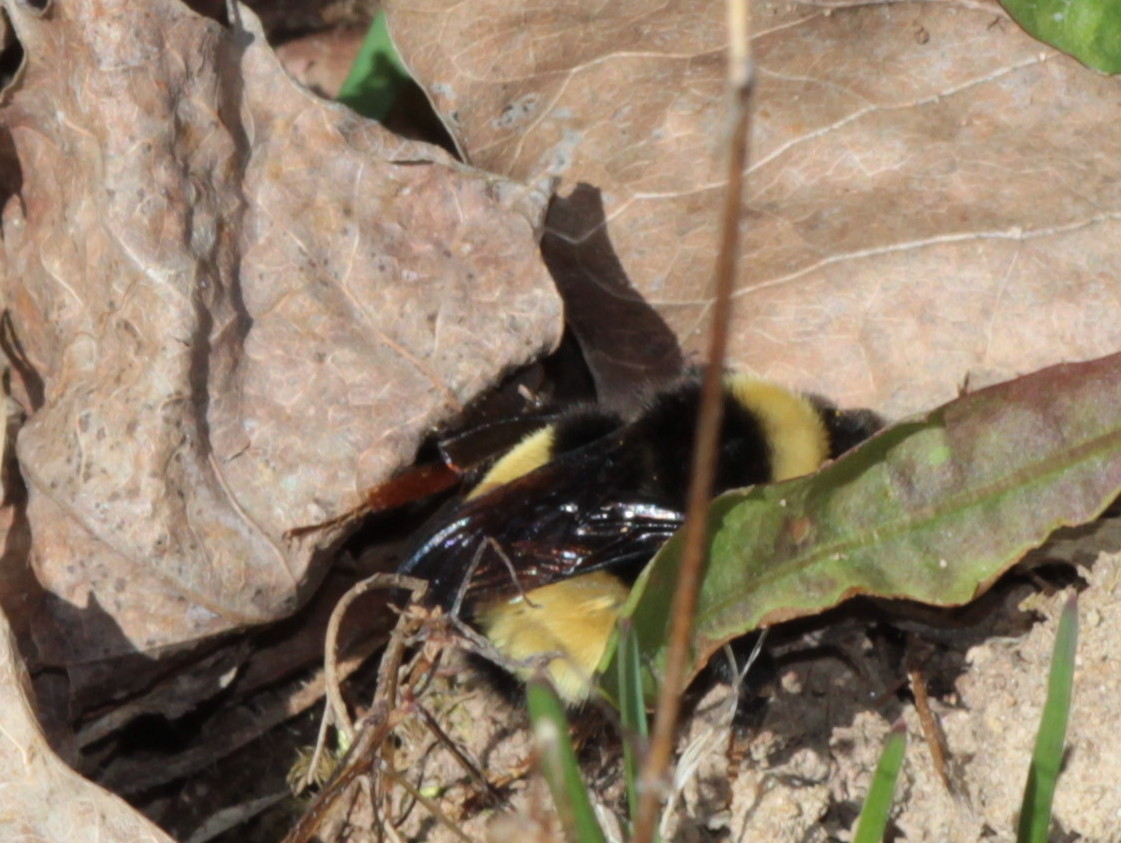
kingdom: Animalia
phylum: Arthropoda
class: Insecta
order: Hymenoptera
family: Apidae
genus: Bombus
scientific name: Bombus terricola
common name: Yellow-banded bumble bee
